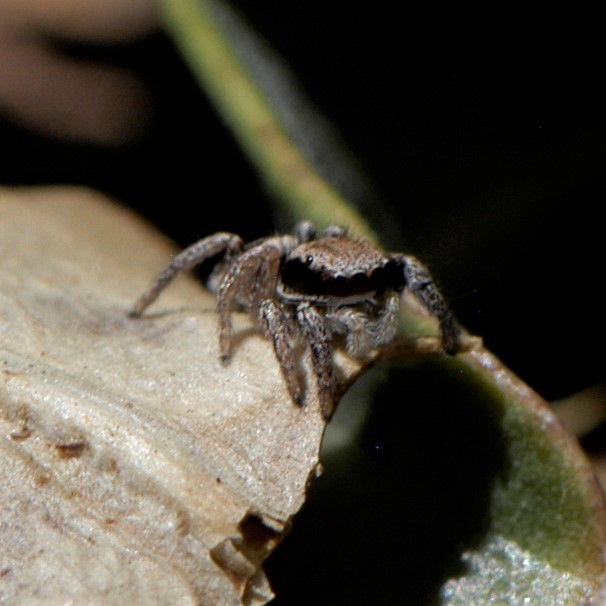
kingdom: Animalia
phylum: Arthropoda
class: Arachnida
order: Araneae
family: Salticidae
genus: Habronattus
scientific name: Habronattus klauseri
